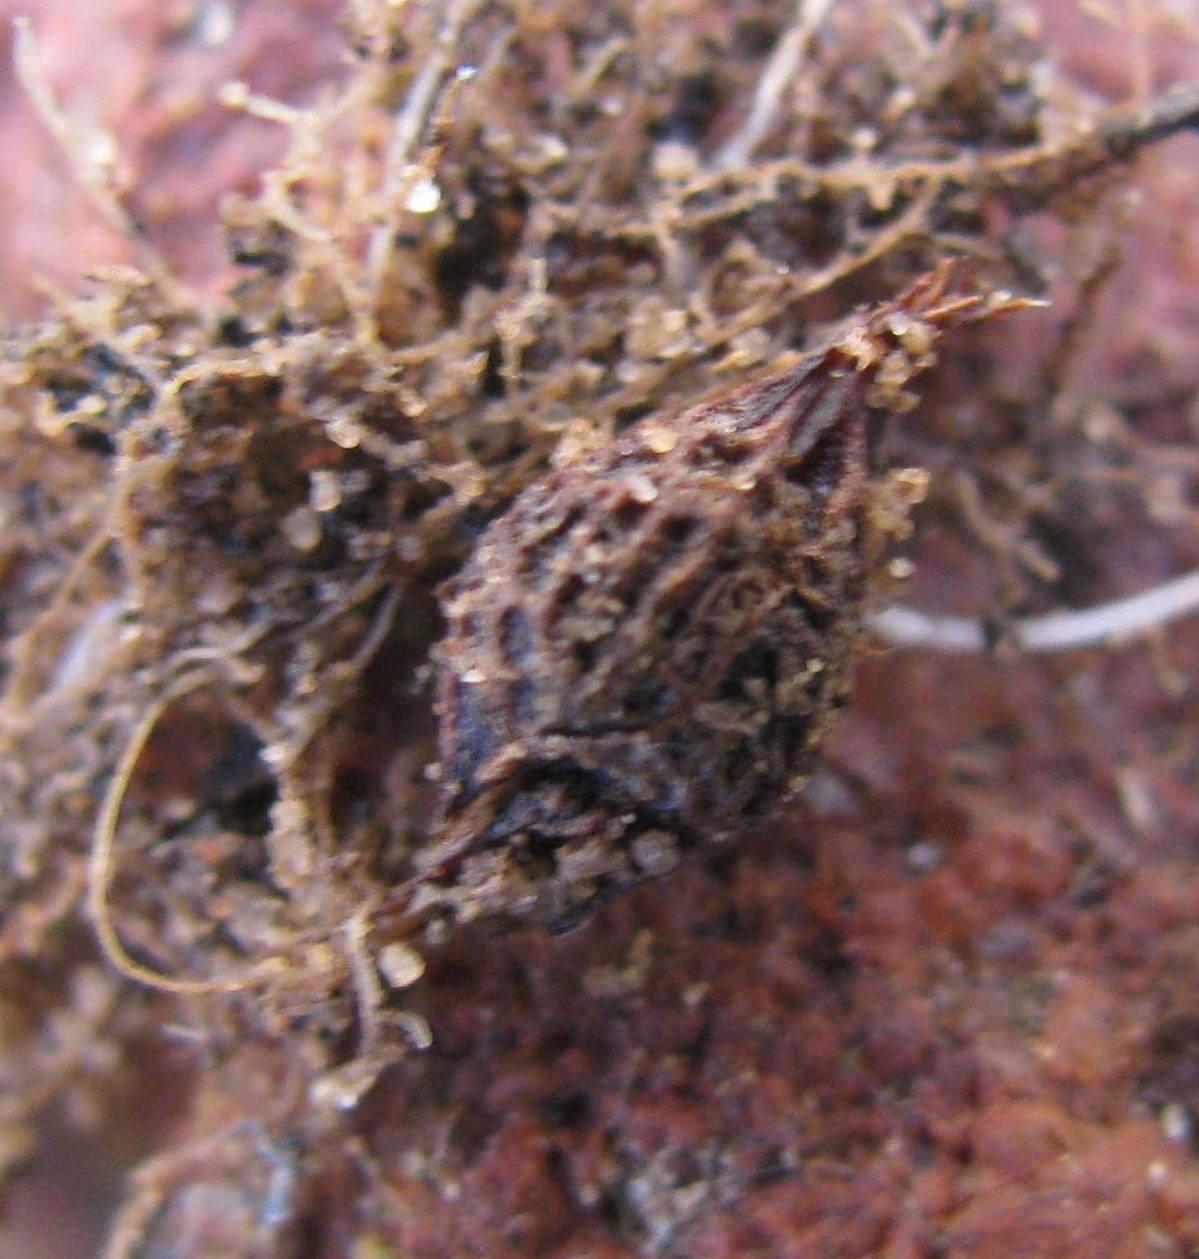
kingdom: Plantae
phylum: Tracheophyta
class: Magnoliopsida
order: Oxalidales
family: Oxalidaceae
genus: Oxalis
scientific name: Oxalis obtusa
